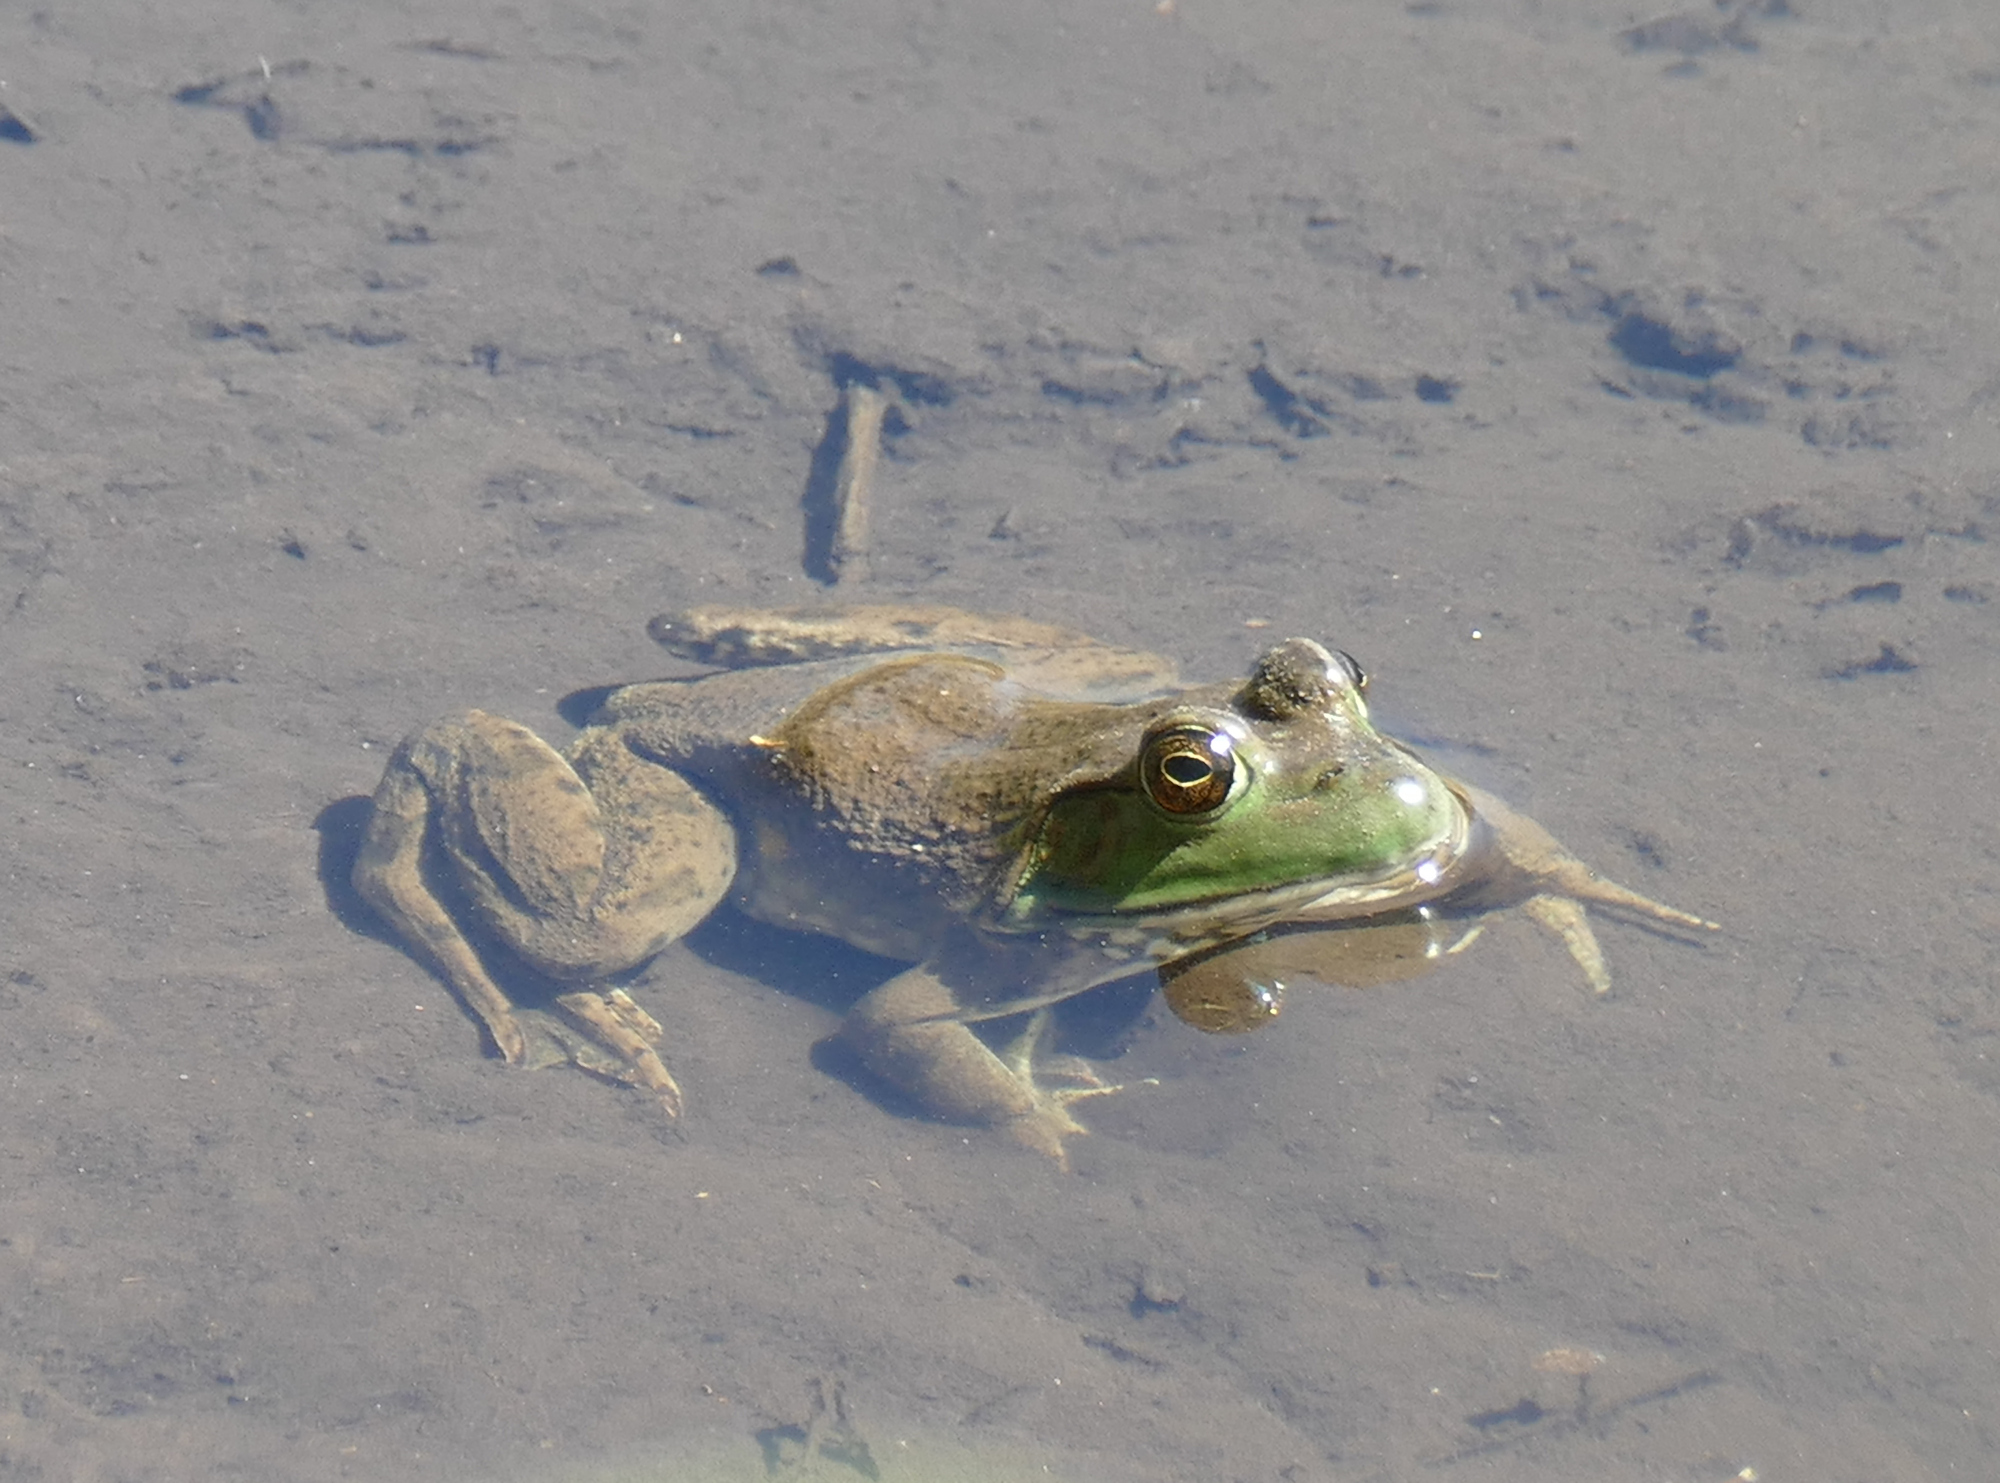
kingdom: Animalia
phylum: Chordata
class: Amphibia
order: Anura
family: Ranidae
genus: Lithobates
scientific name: Lithobates catesbeianus
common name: American bullfrog
